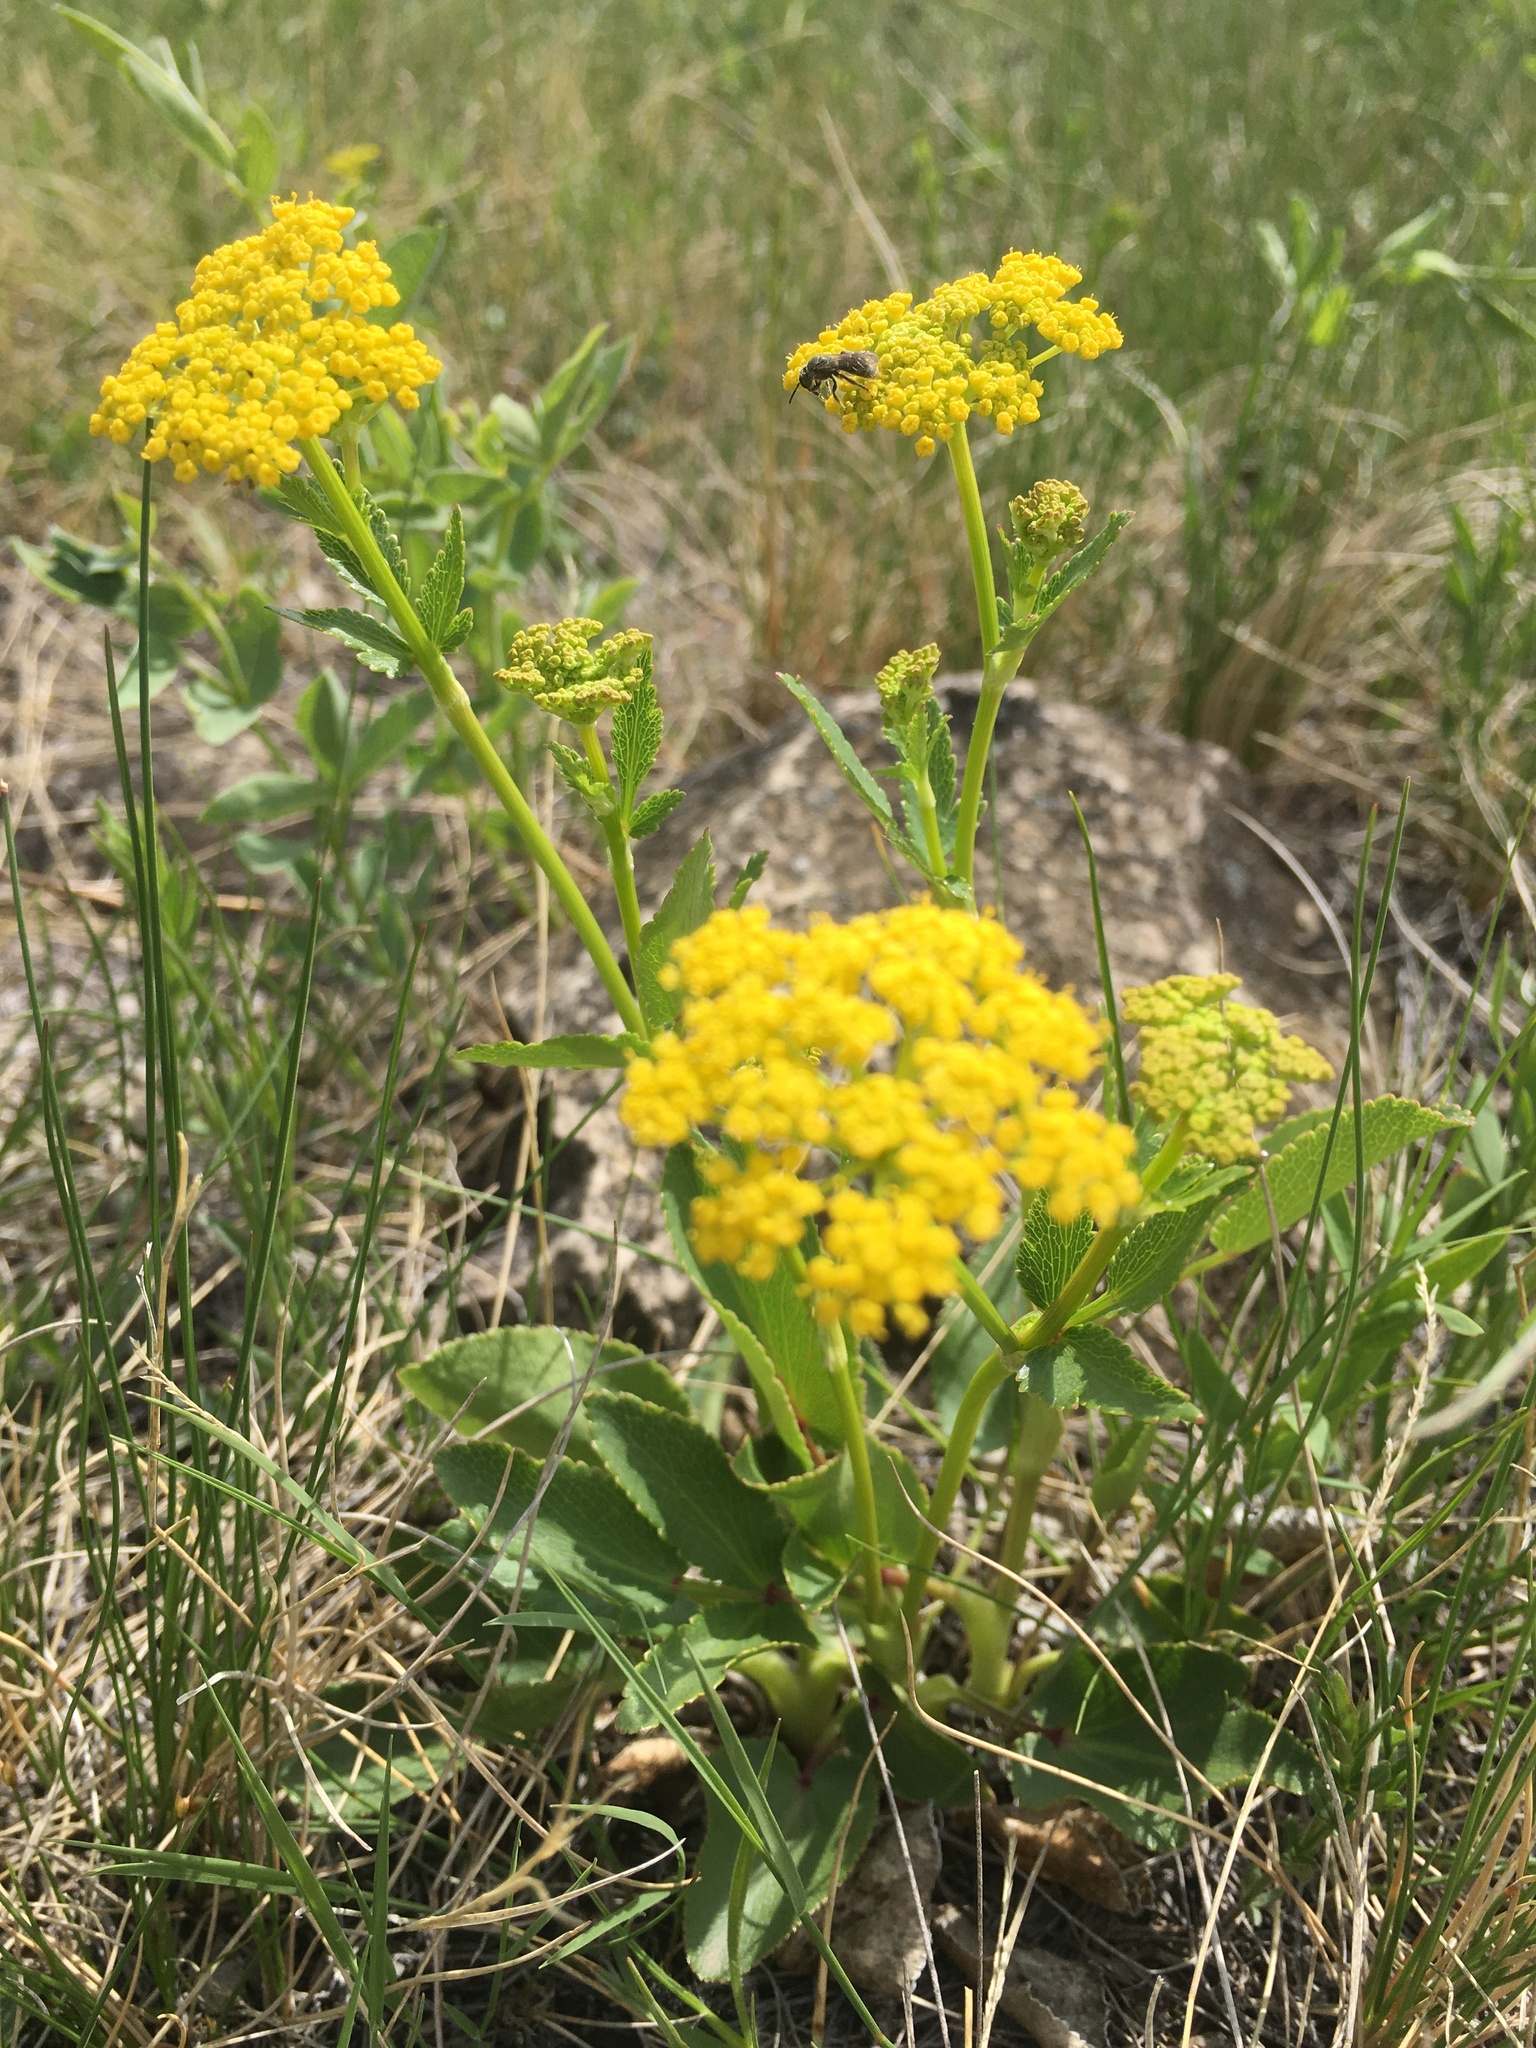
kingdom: Plantae
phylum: Tracheophyta
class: Magnoliopsida
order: Apiales
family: Apiaceae
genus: Zizia
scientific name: Zizia aptera
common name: Heart-leaved alexanders
